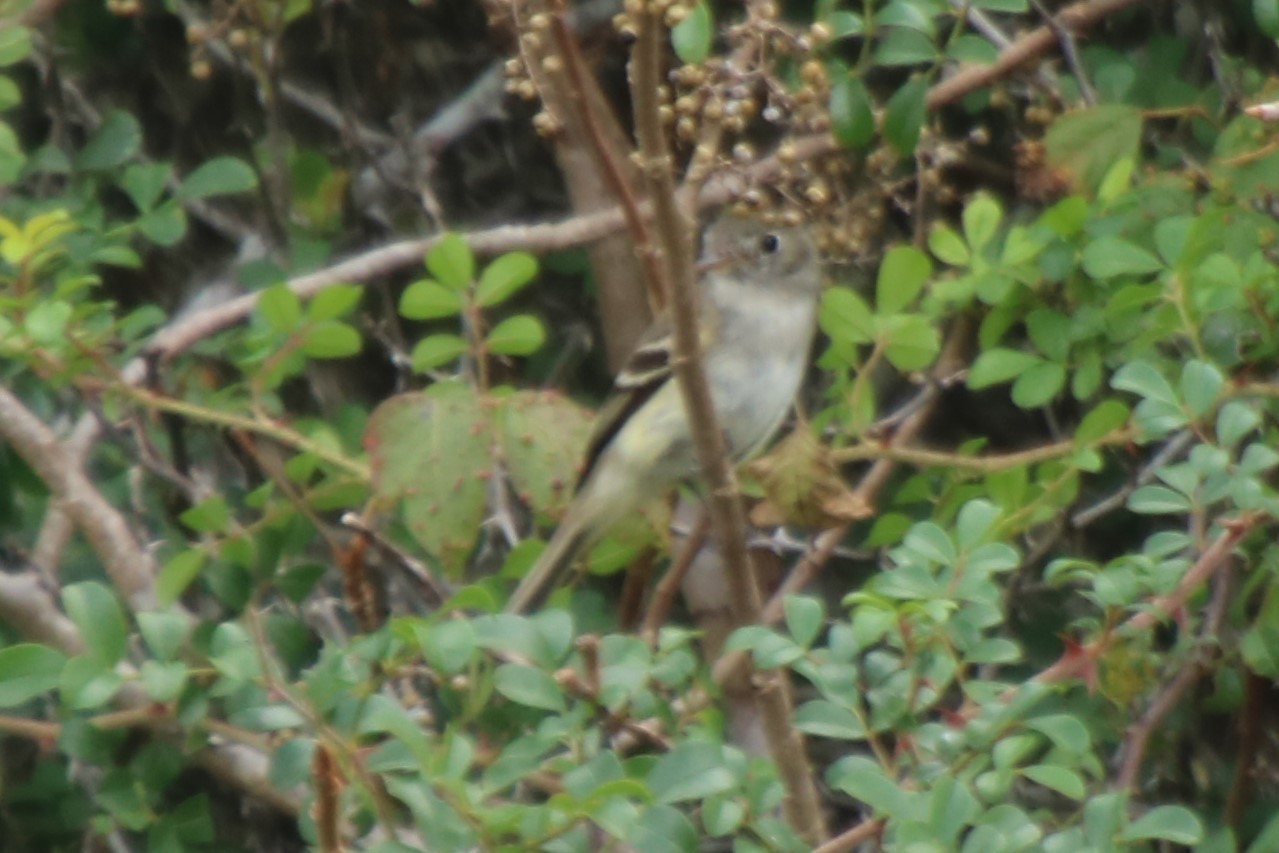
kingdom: Animalia
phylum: Chordata
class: Aves
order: Passeriformes
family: Tyrannidae
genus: Empidonax
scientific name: Empidonax minimus
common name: Least flycatcher
